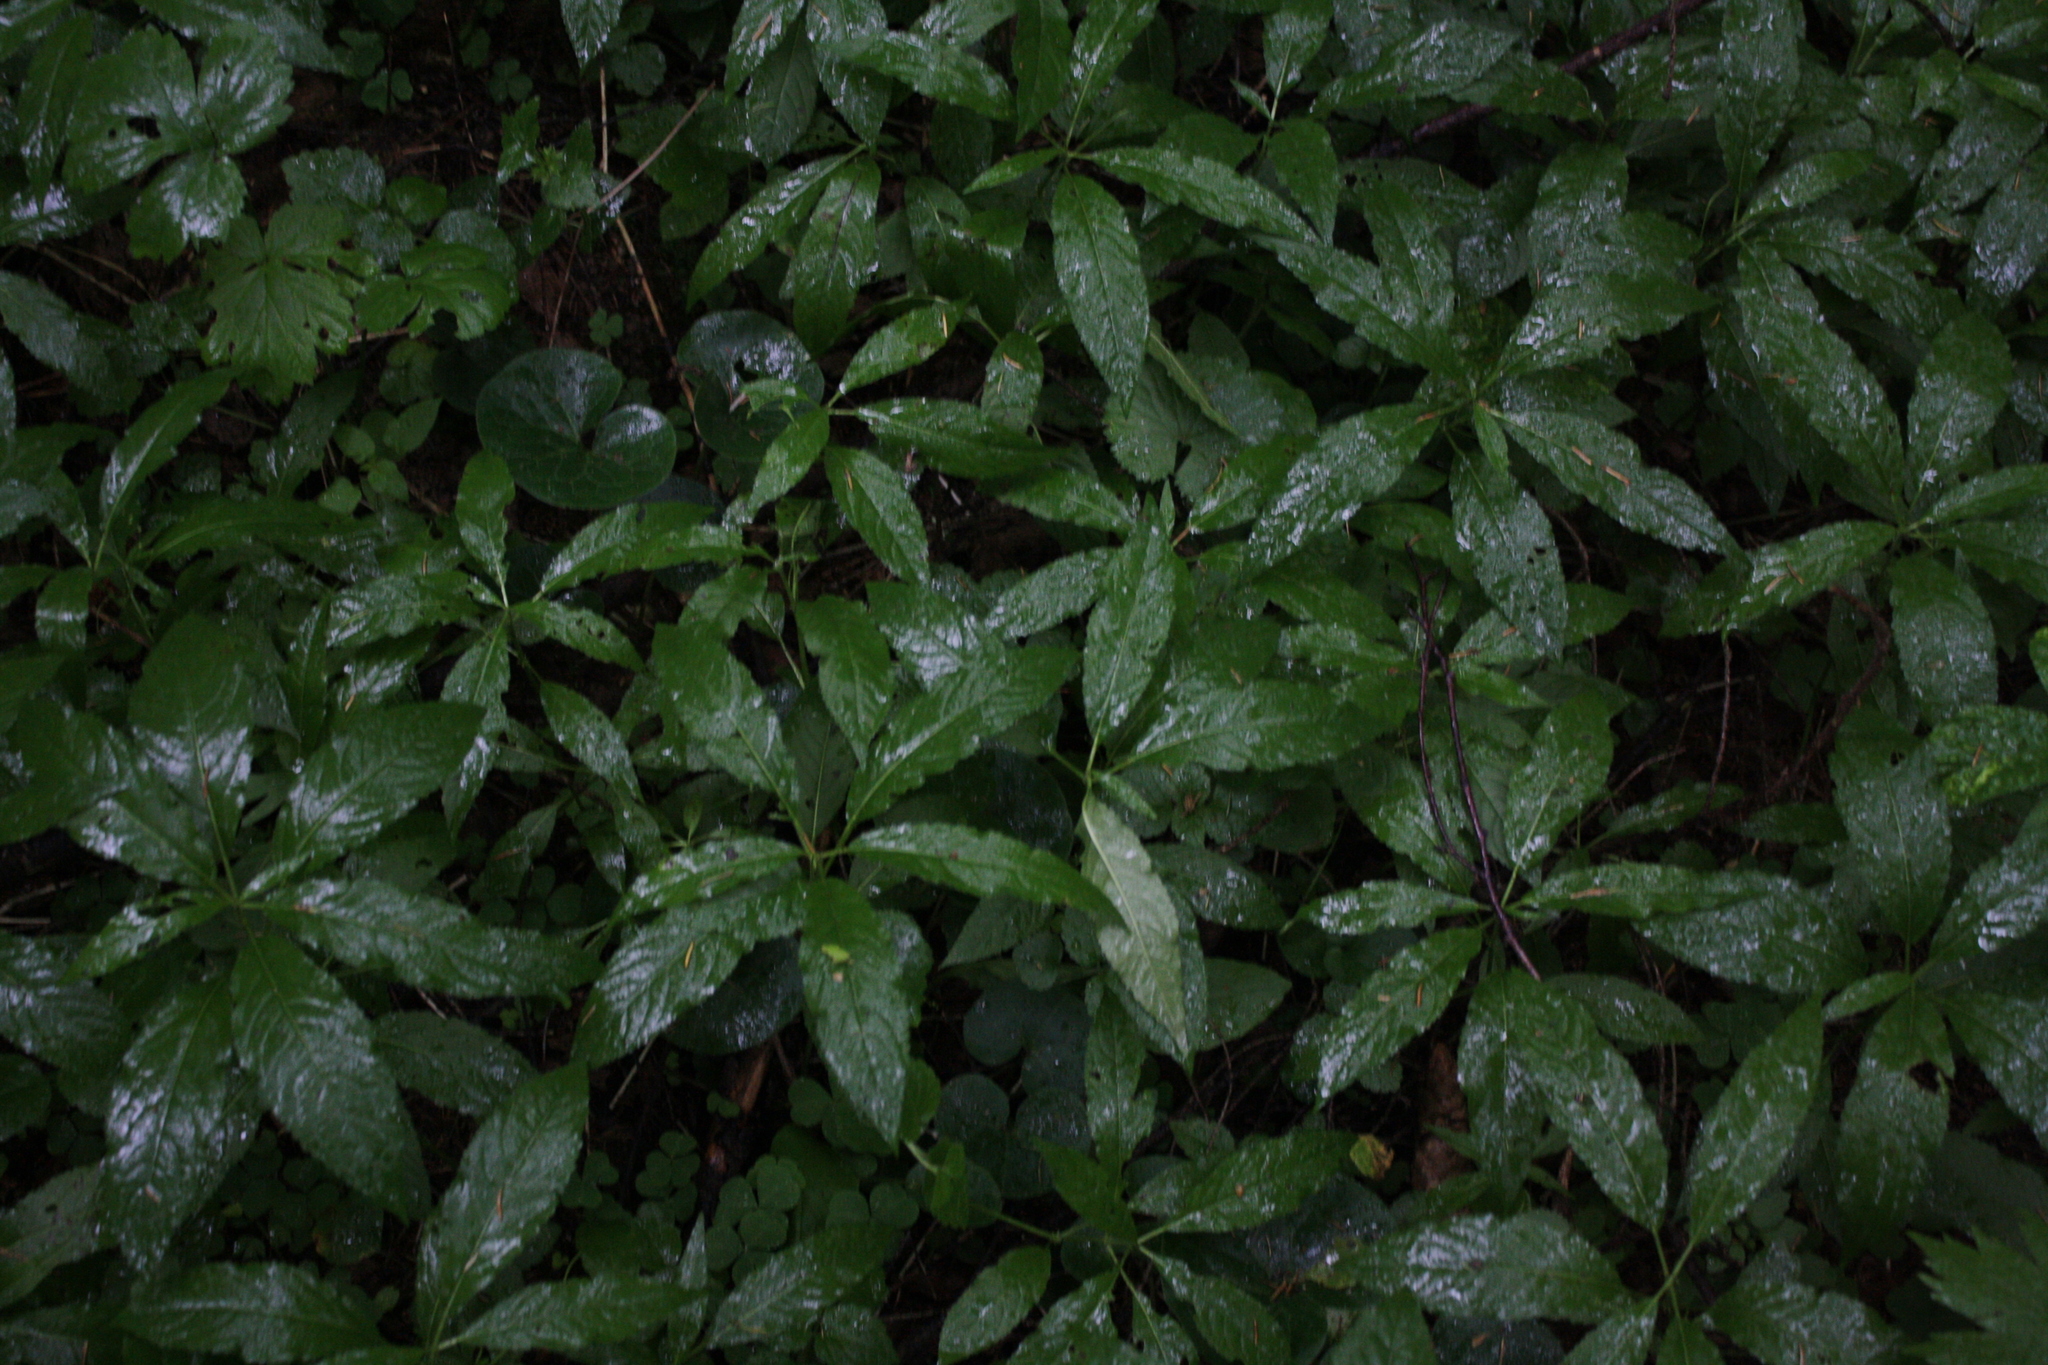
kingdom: Plantae
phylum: Tracheophyta
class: Magnoliopsida
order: Malpighiales
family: Euphorbiaceae
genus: Mercurialis
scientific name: Mercurialis perennis
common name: Dog mercury
